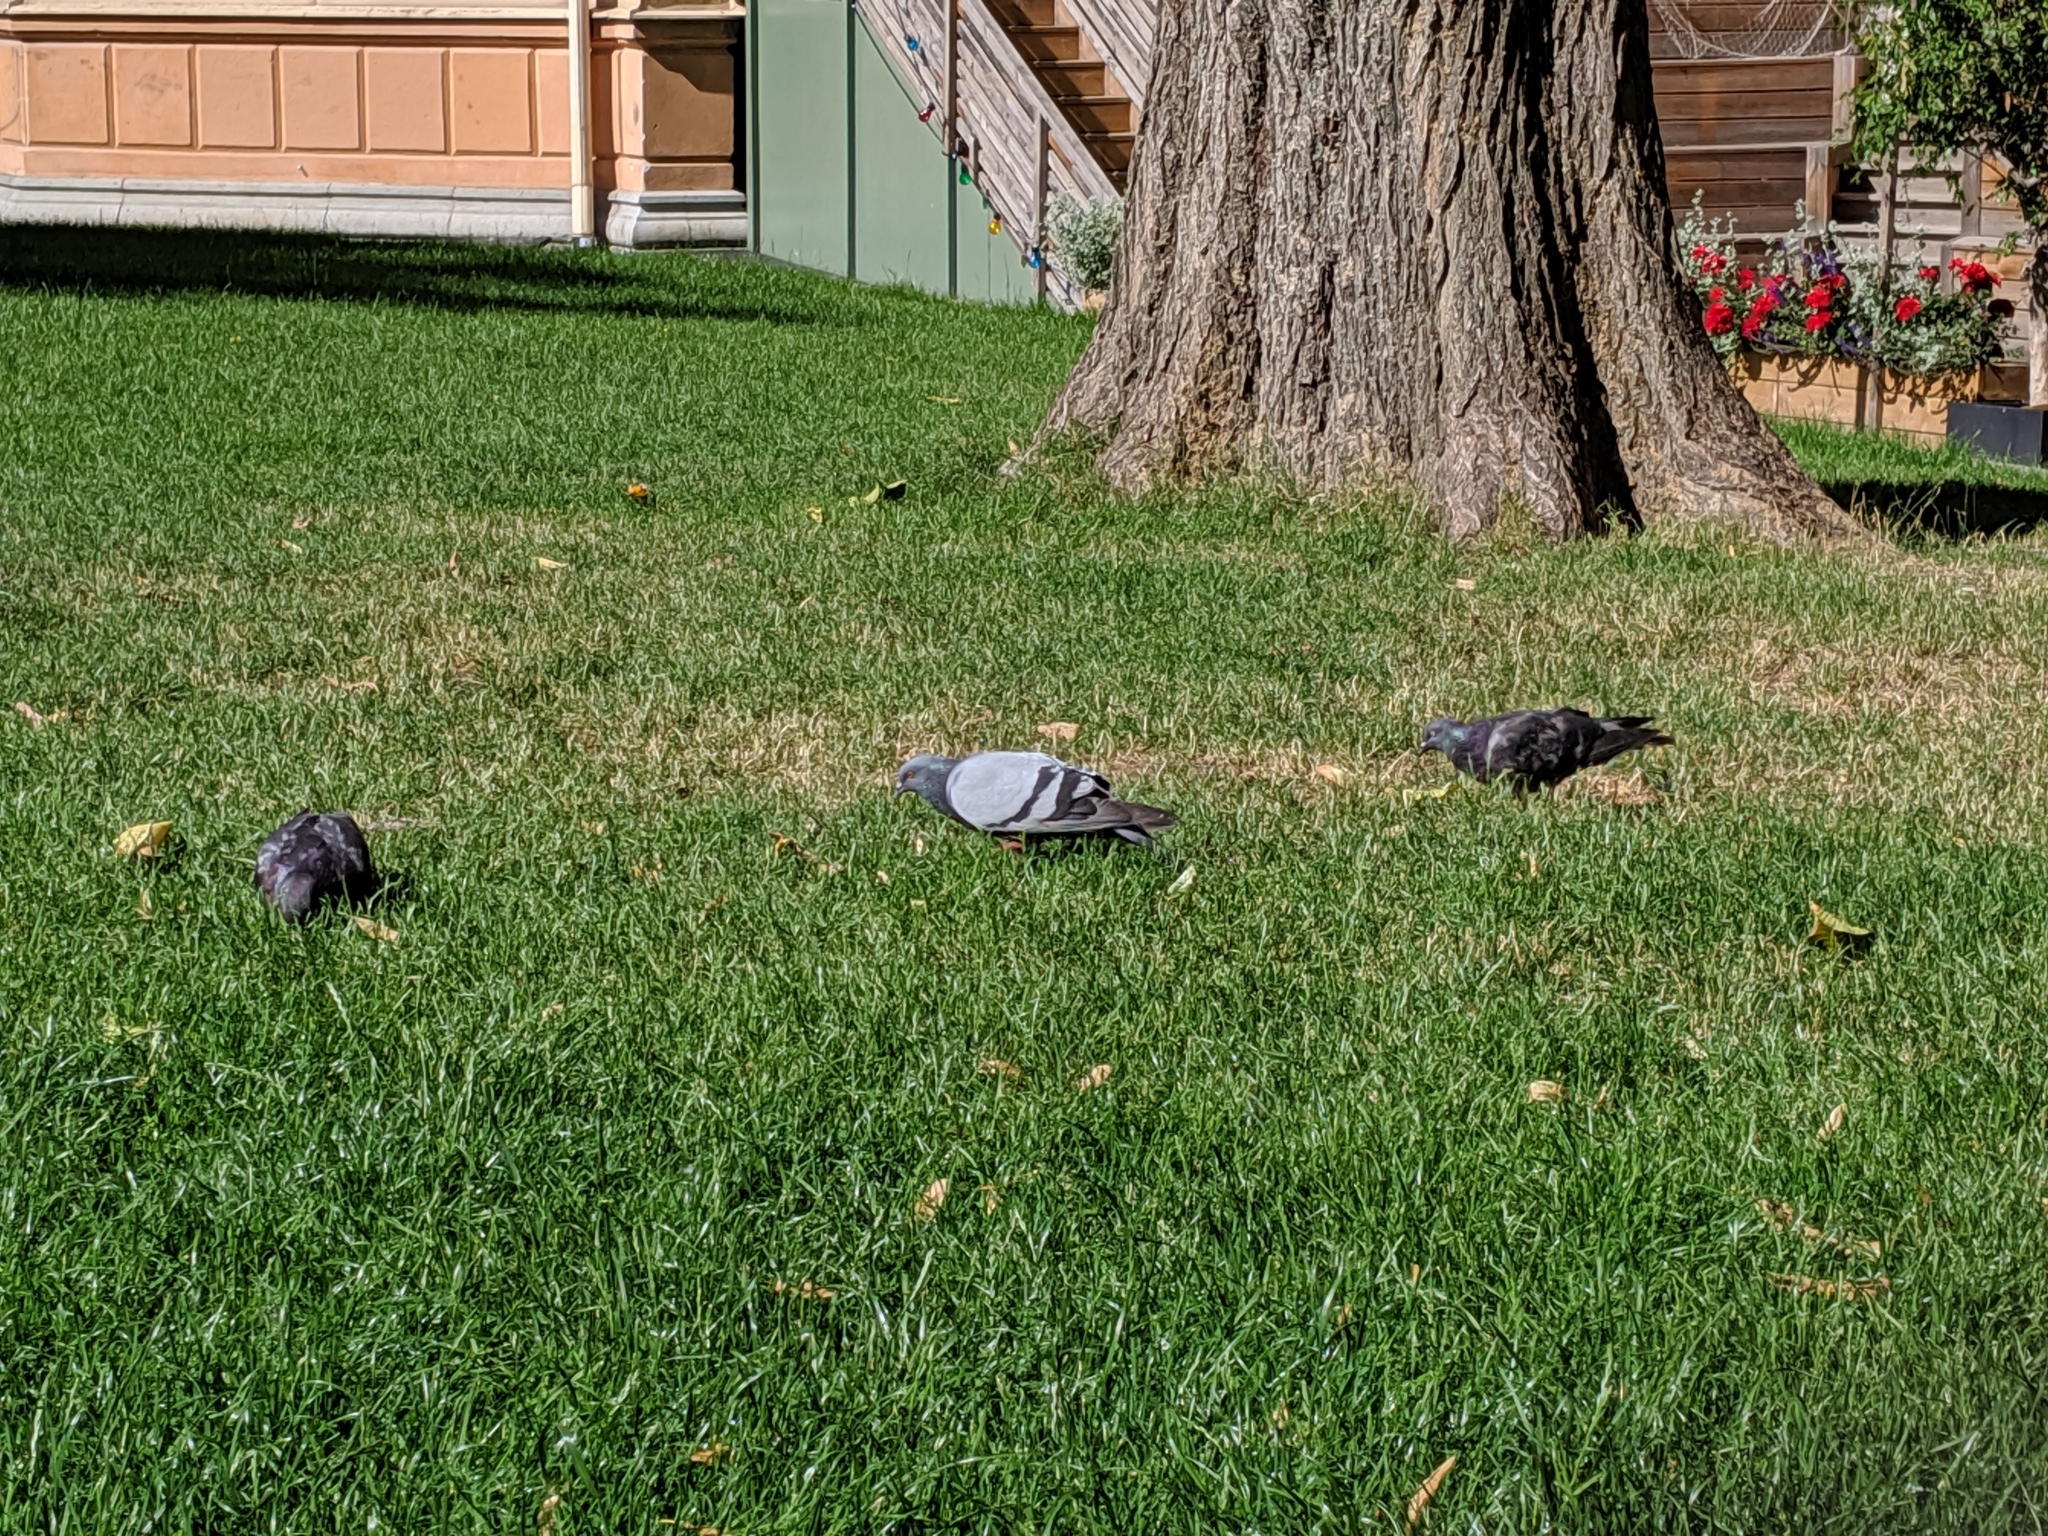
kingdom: Animalia
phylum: Chordata
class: Aves
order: Columbiformes
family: Columbidae
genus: Columba
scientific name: Columba livia
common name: Rock pigeon
